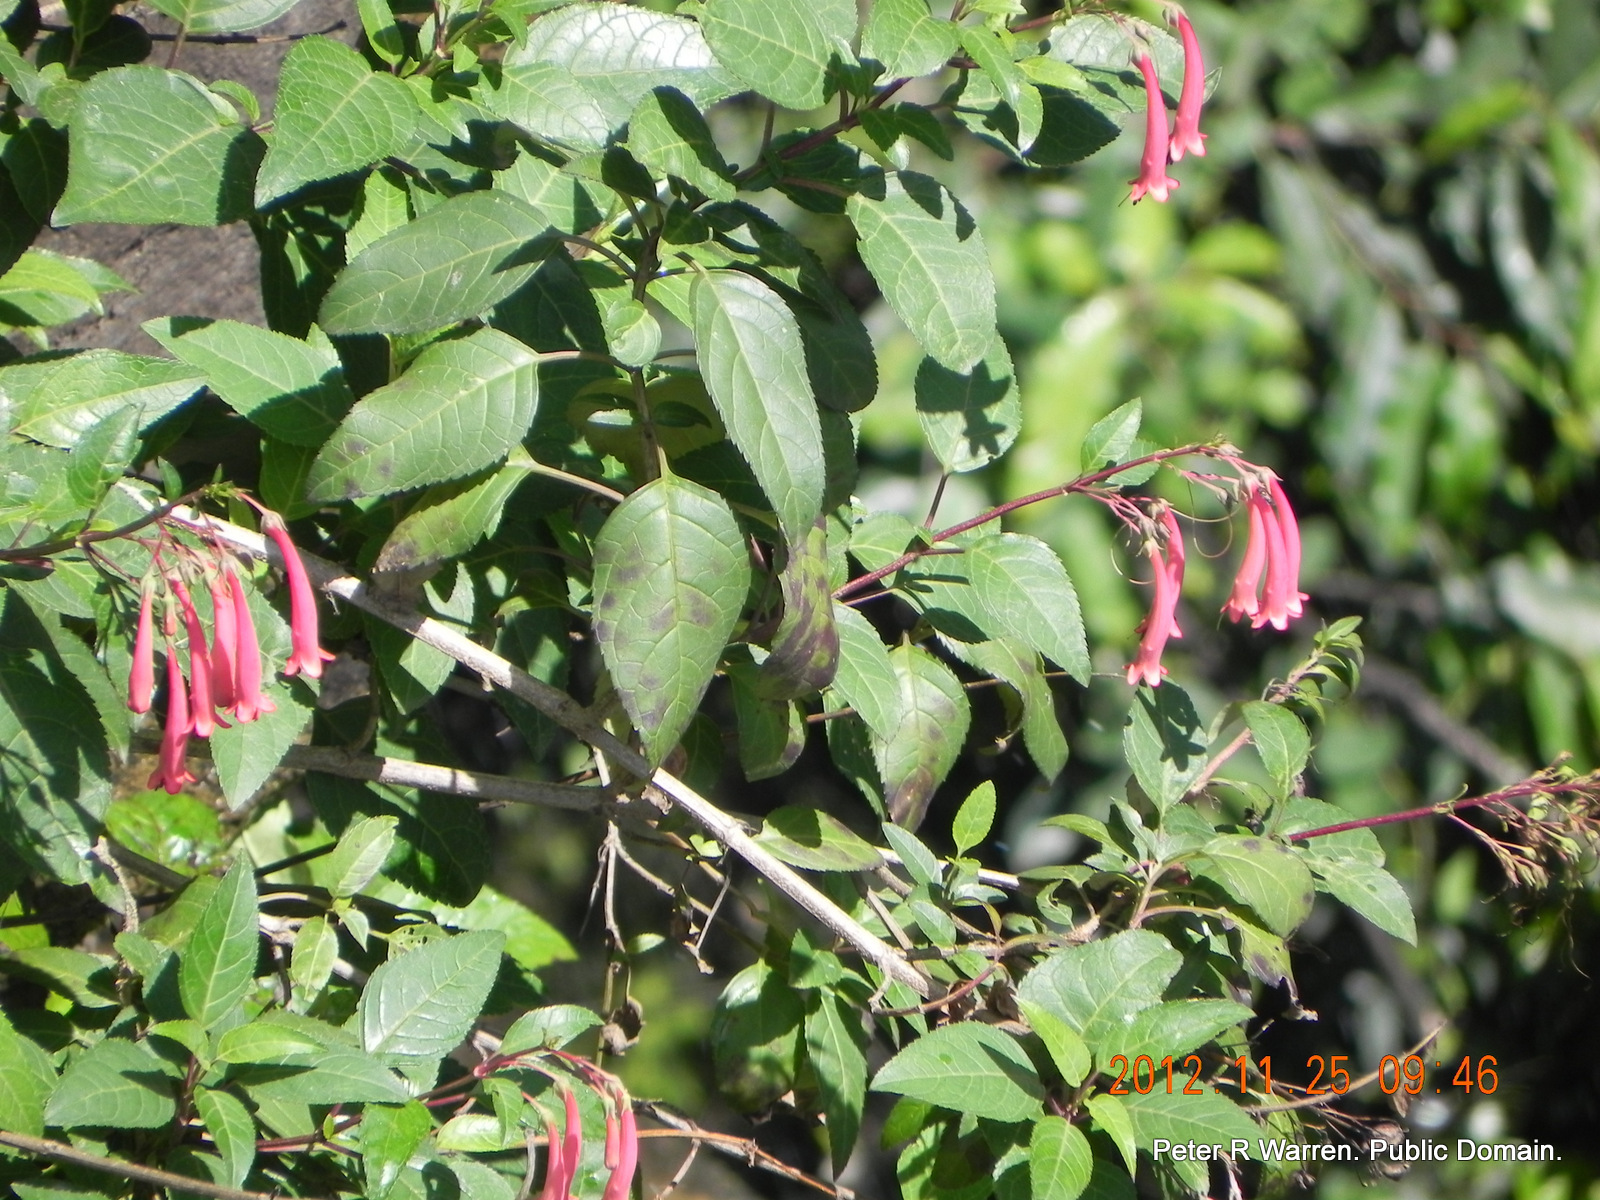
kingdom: Plantae
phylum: Tracheophyta
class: Magnoliopsida
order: Lamiales
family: Scrophulariaceae
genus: Phygelius
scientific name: Phygelius aequalis
